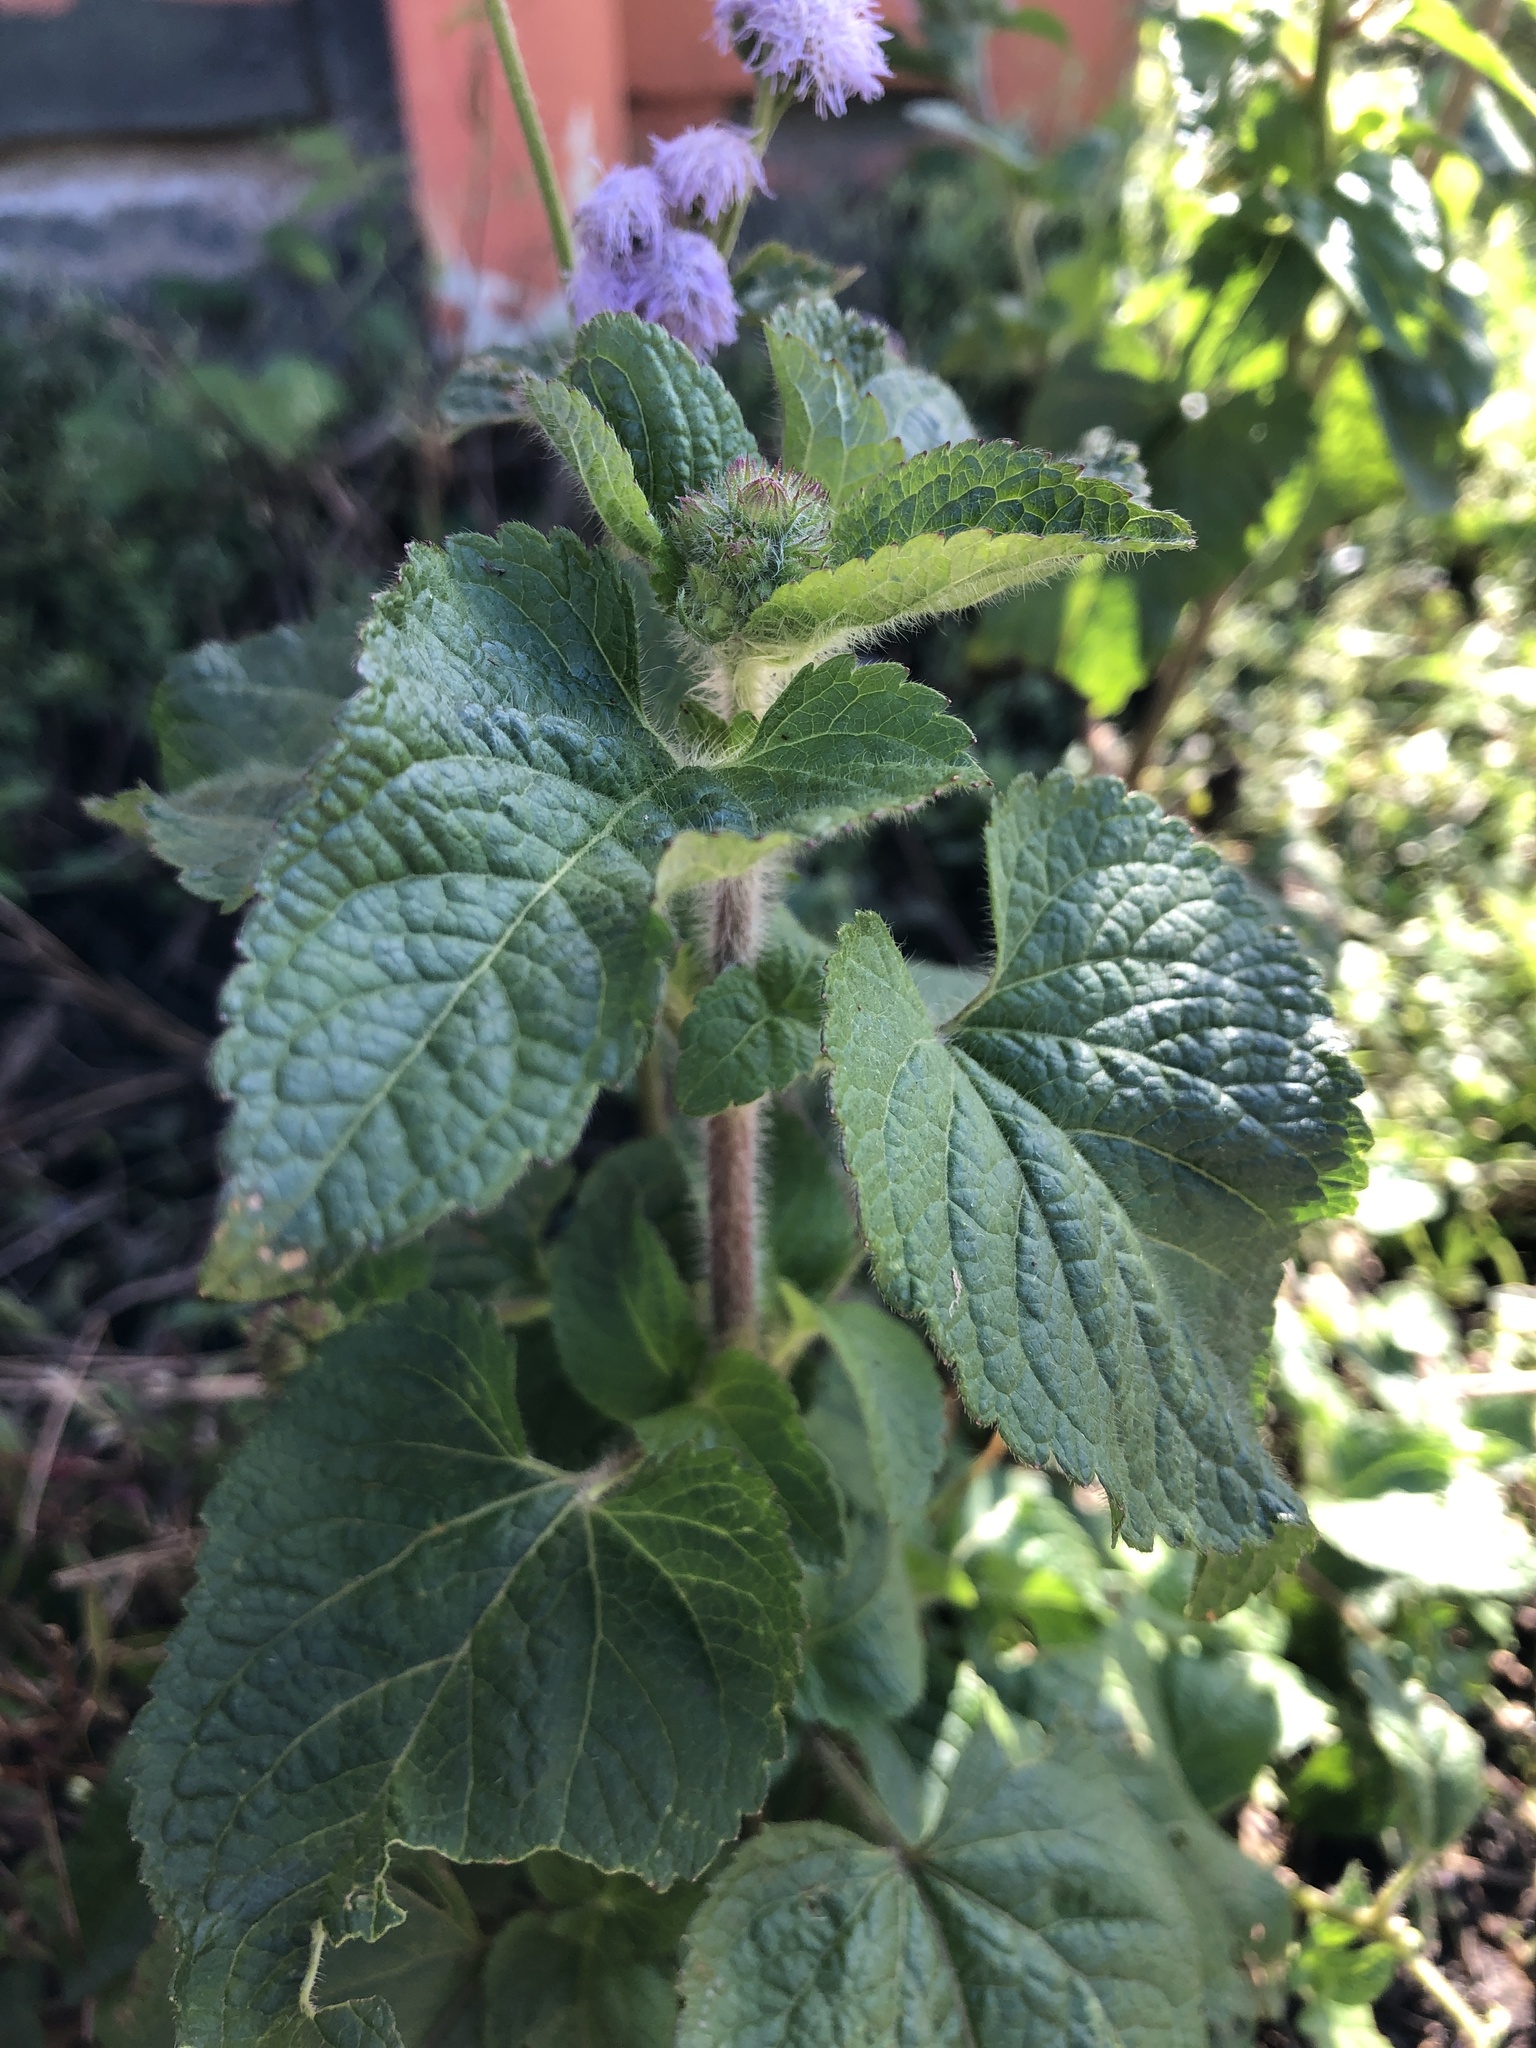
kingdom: Plantae
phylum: Tracheophyta
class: Magnoliopsida
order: Asterales
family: Asteraceae
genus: Ageratum
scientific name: Ageratum houstonianum
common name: Bluemink
